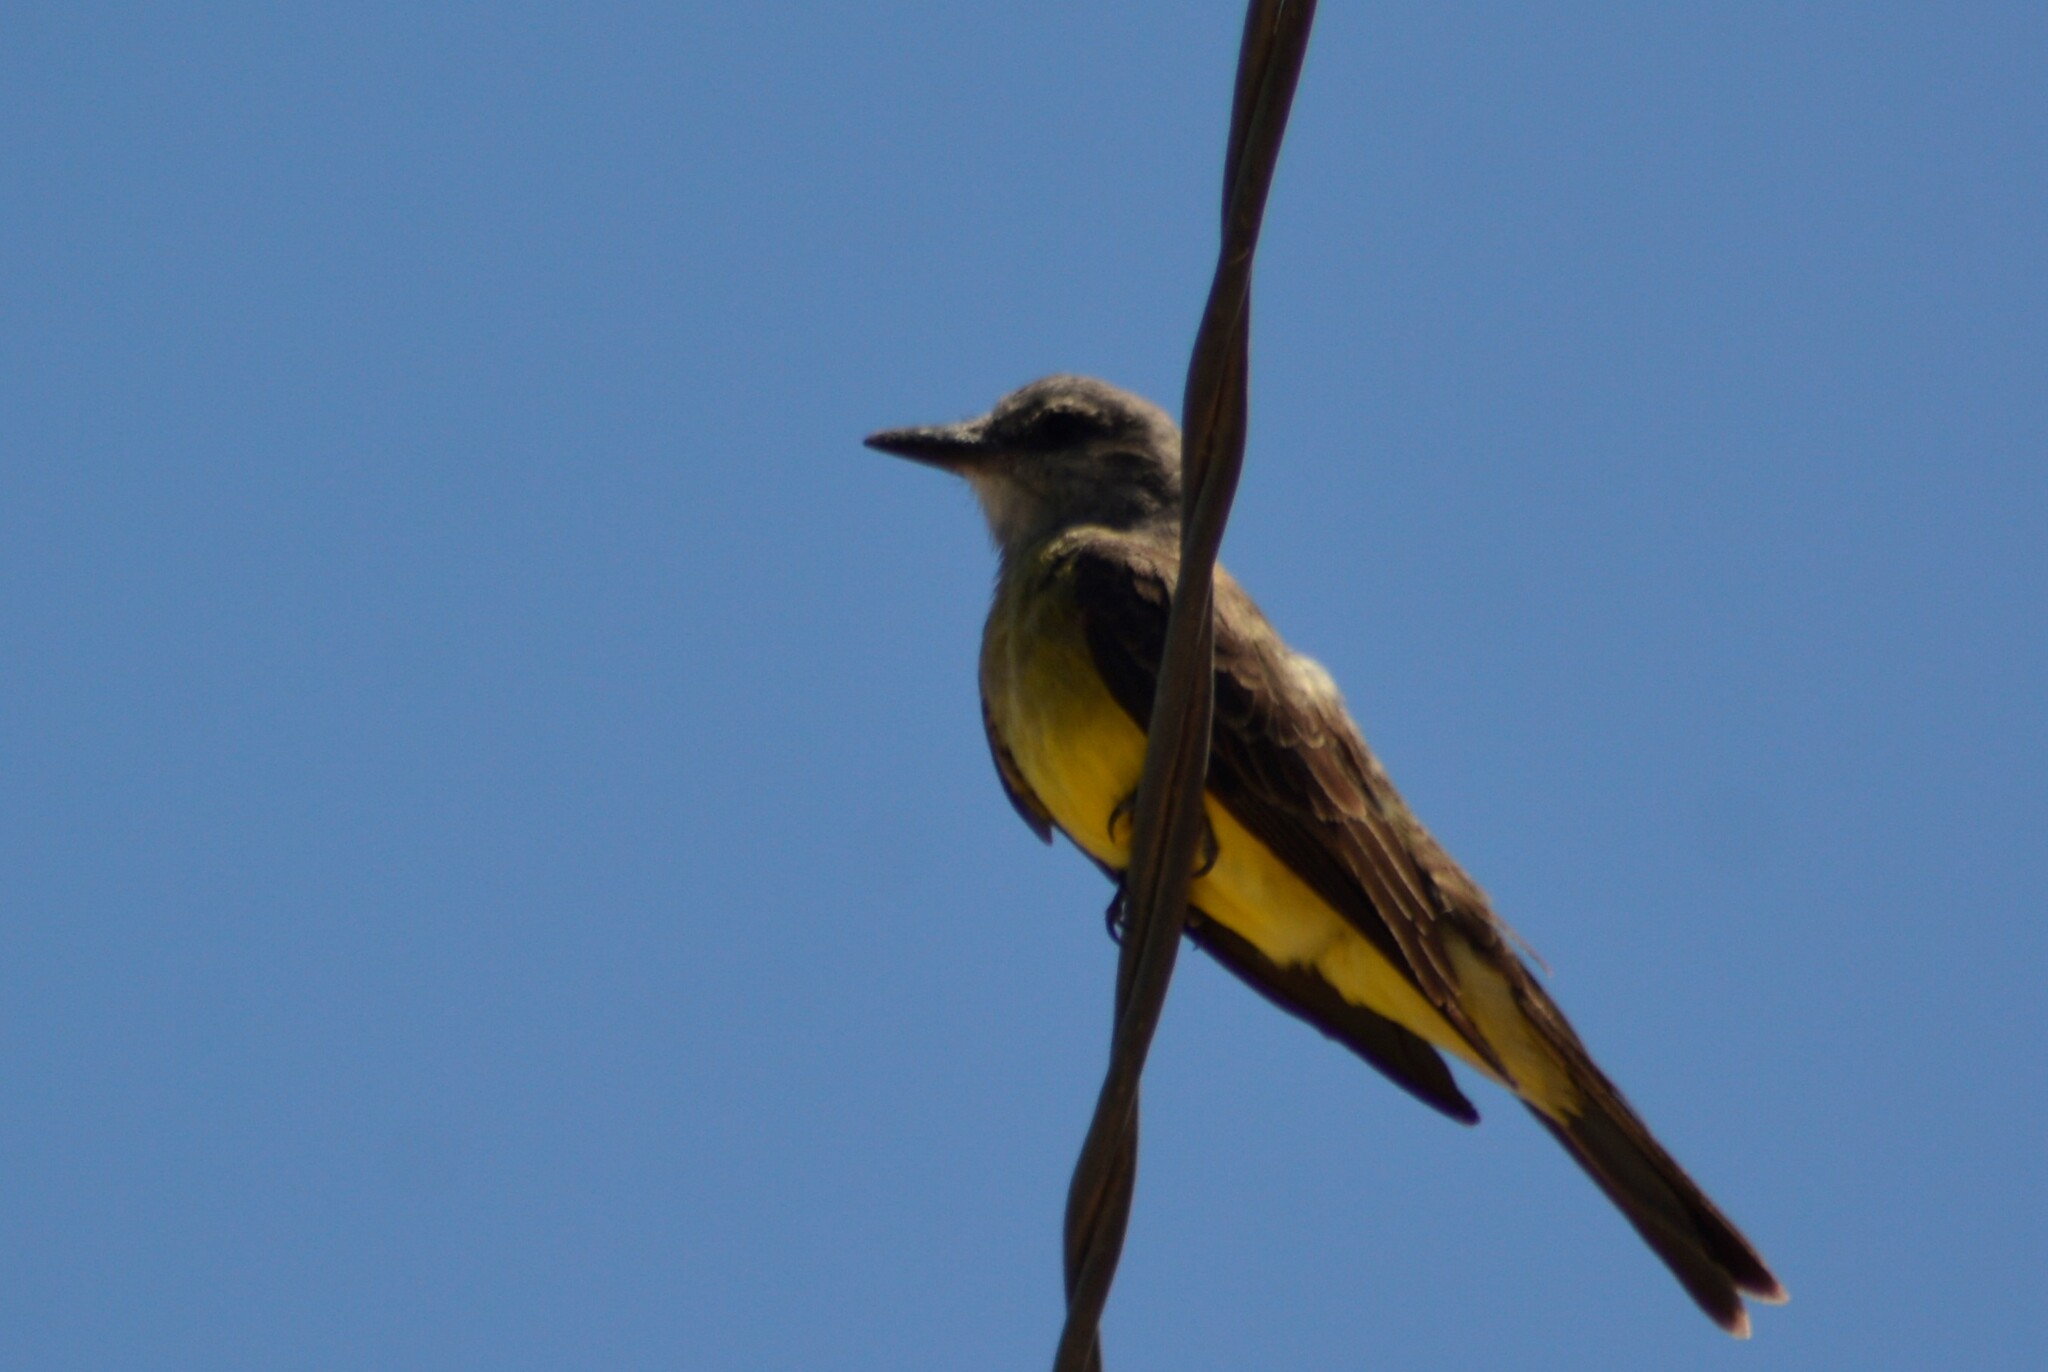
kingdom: Animalia
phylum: Chordata
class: Aves
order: Passeriformes
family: Tyrannidae
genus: Tyrannus
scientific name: Tyrannus melancholicus
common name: Tropical kingbird
